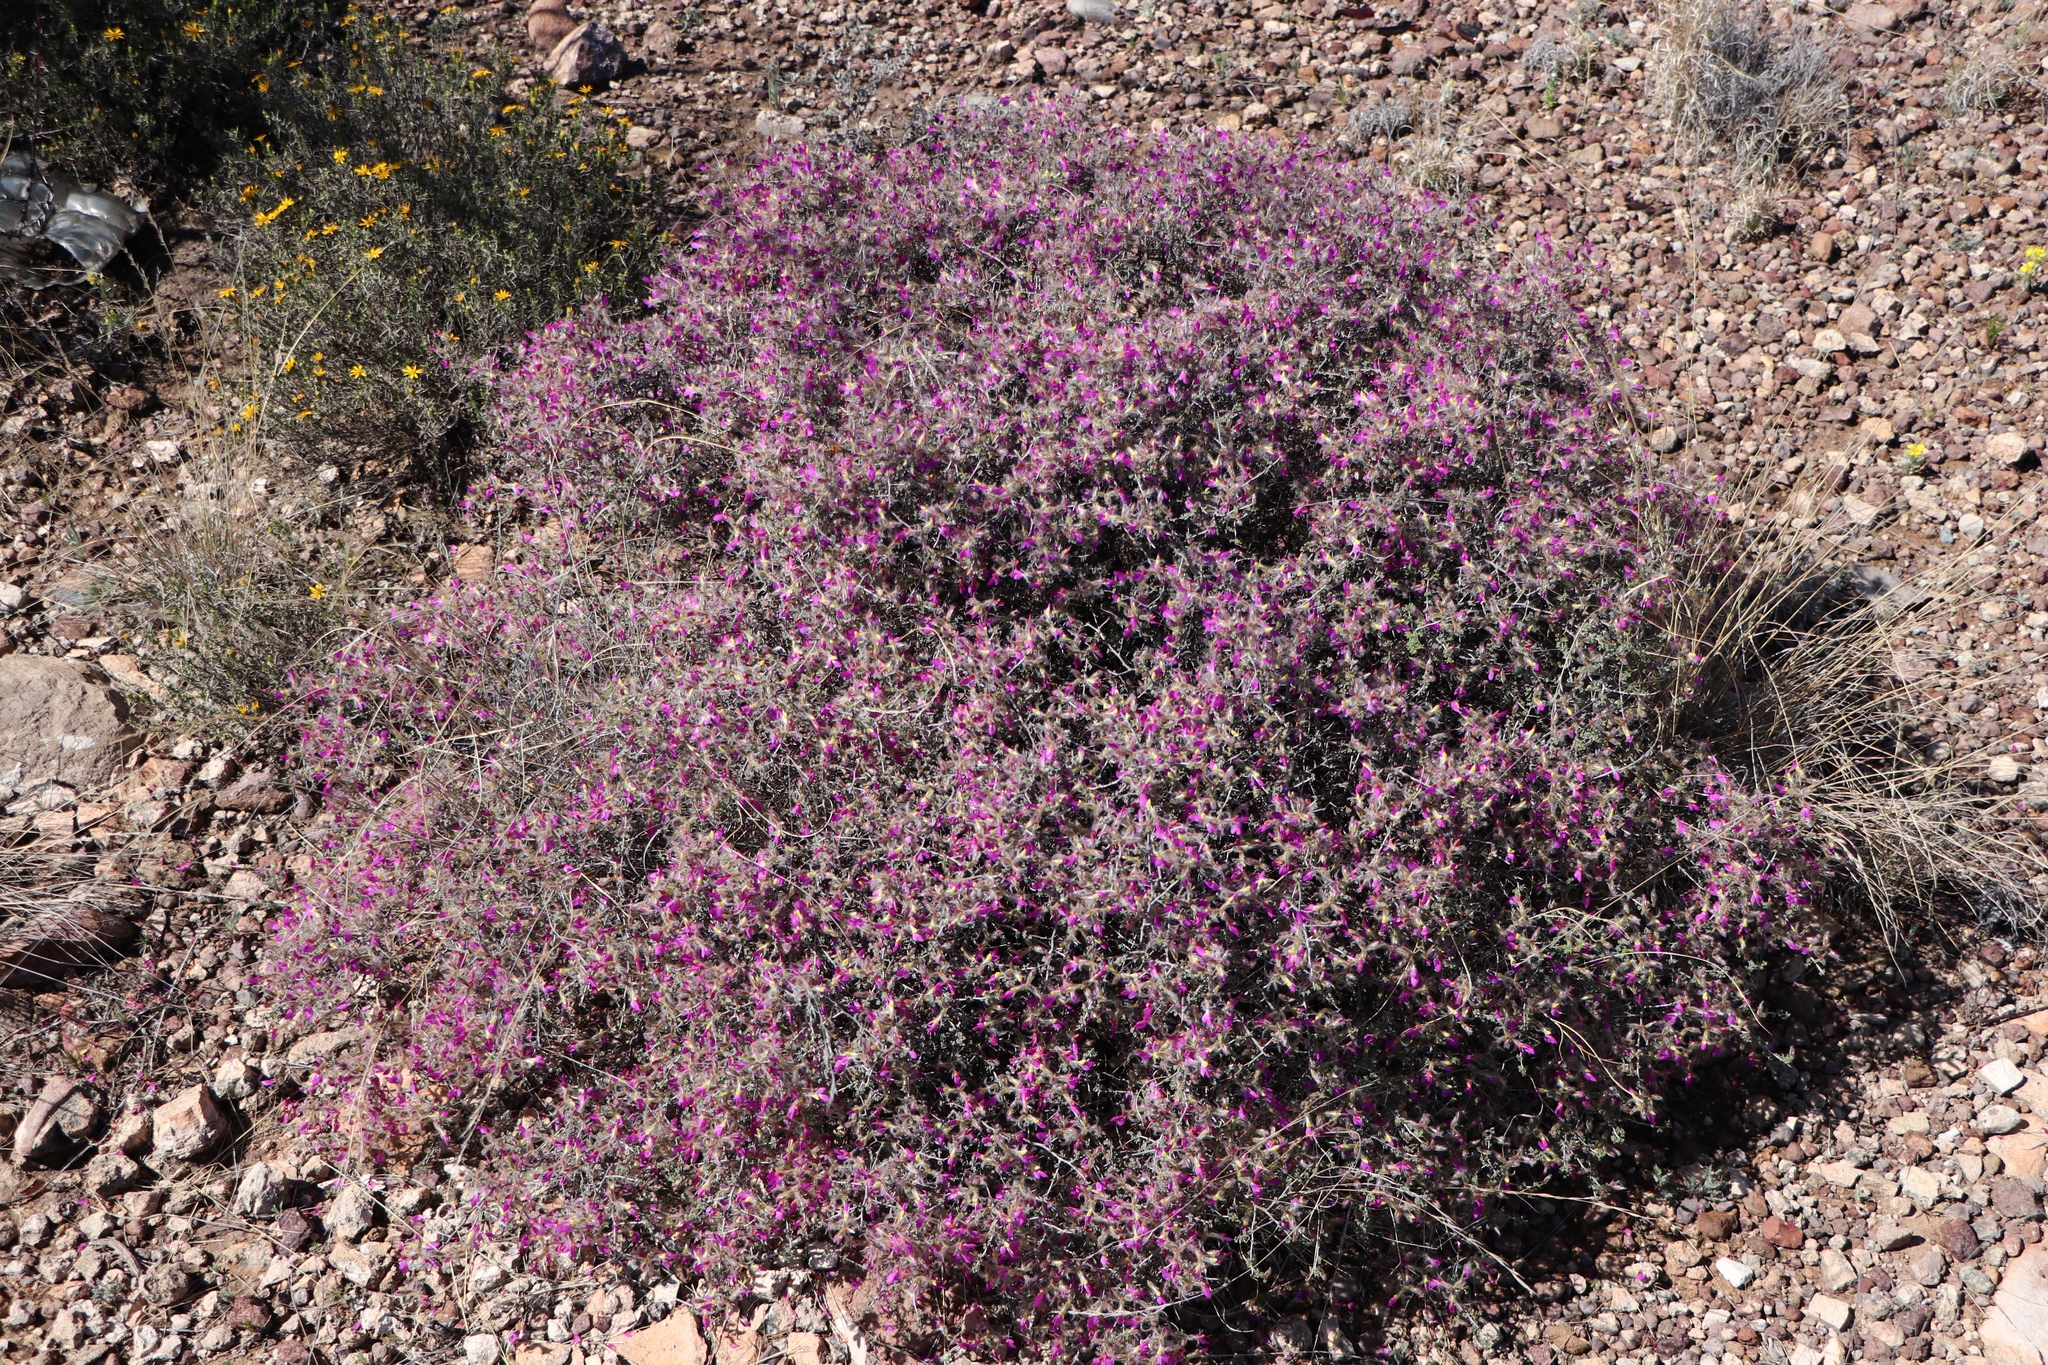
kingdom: Plantae
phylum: Tracheophyta
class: Magnoliopsida
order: Fabales
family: Fabaceae
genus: Dalea
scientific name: Dalea formosa
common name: Feather-plume dalea
